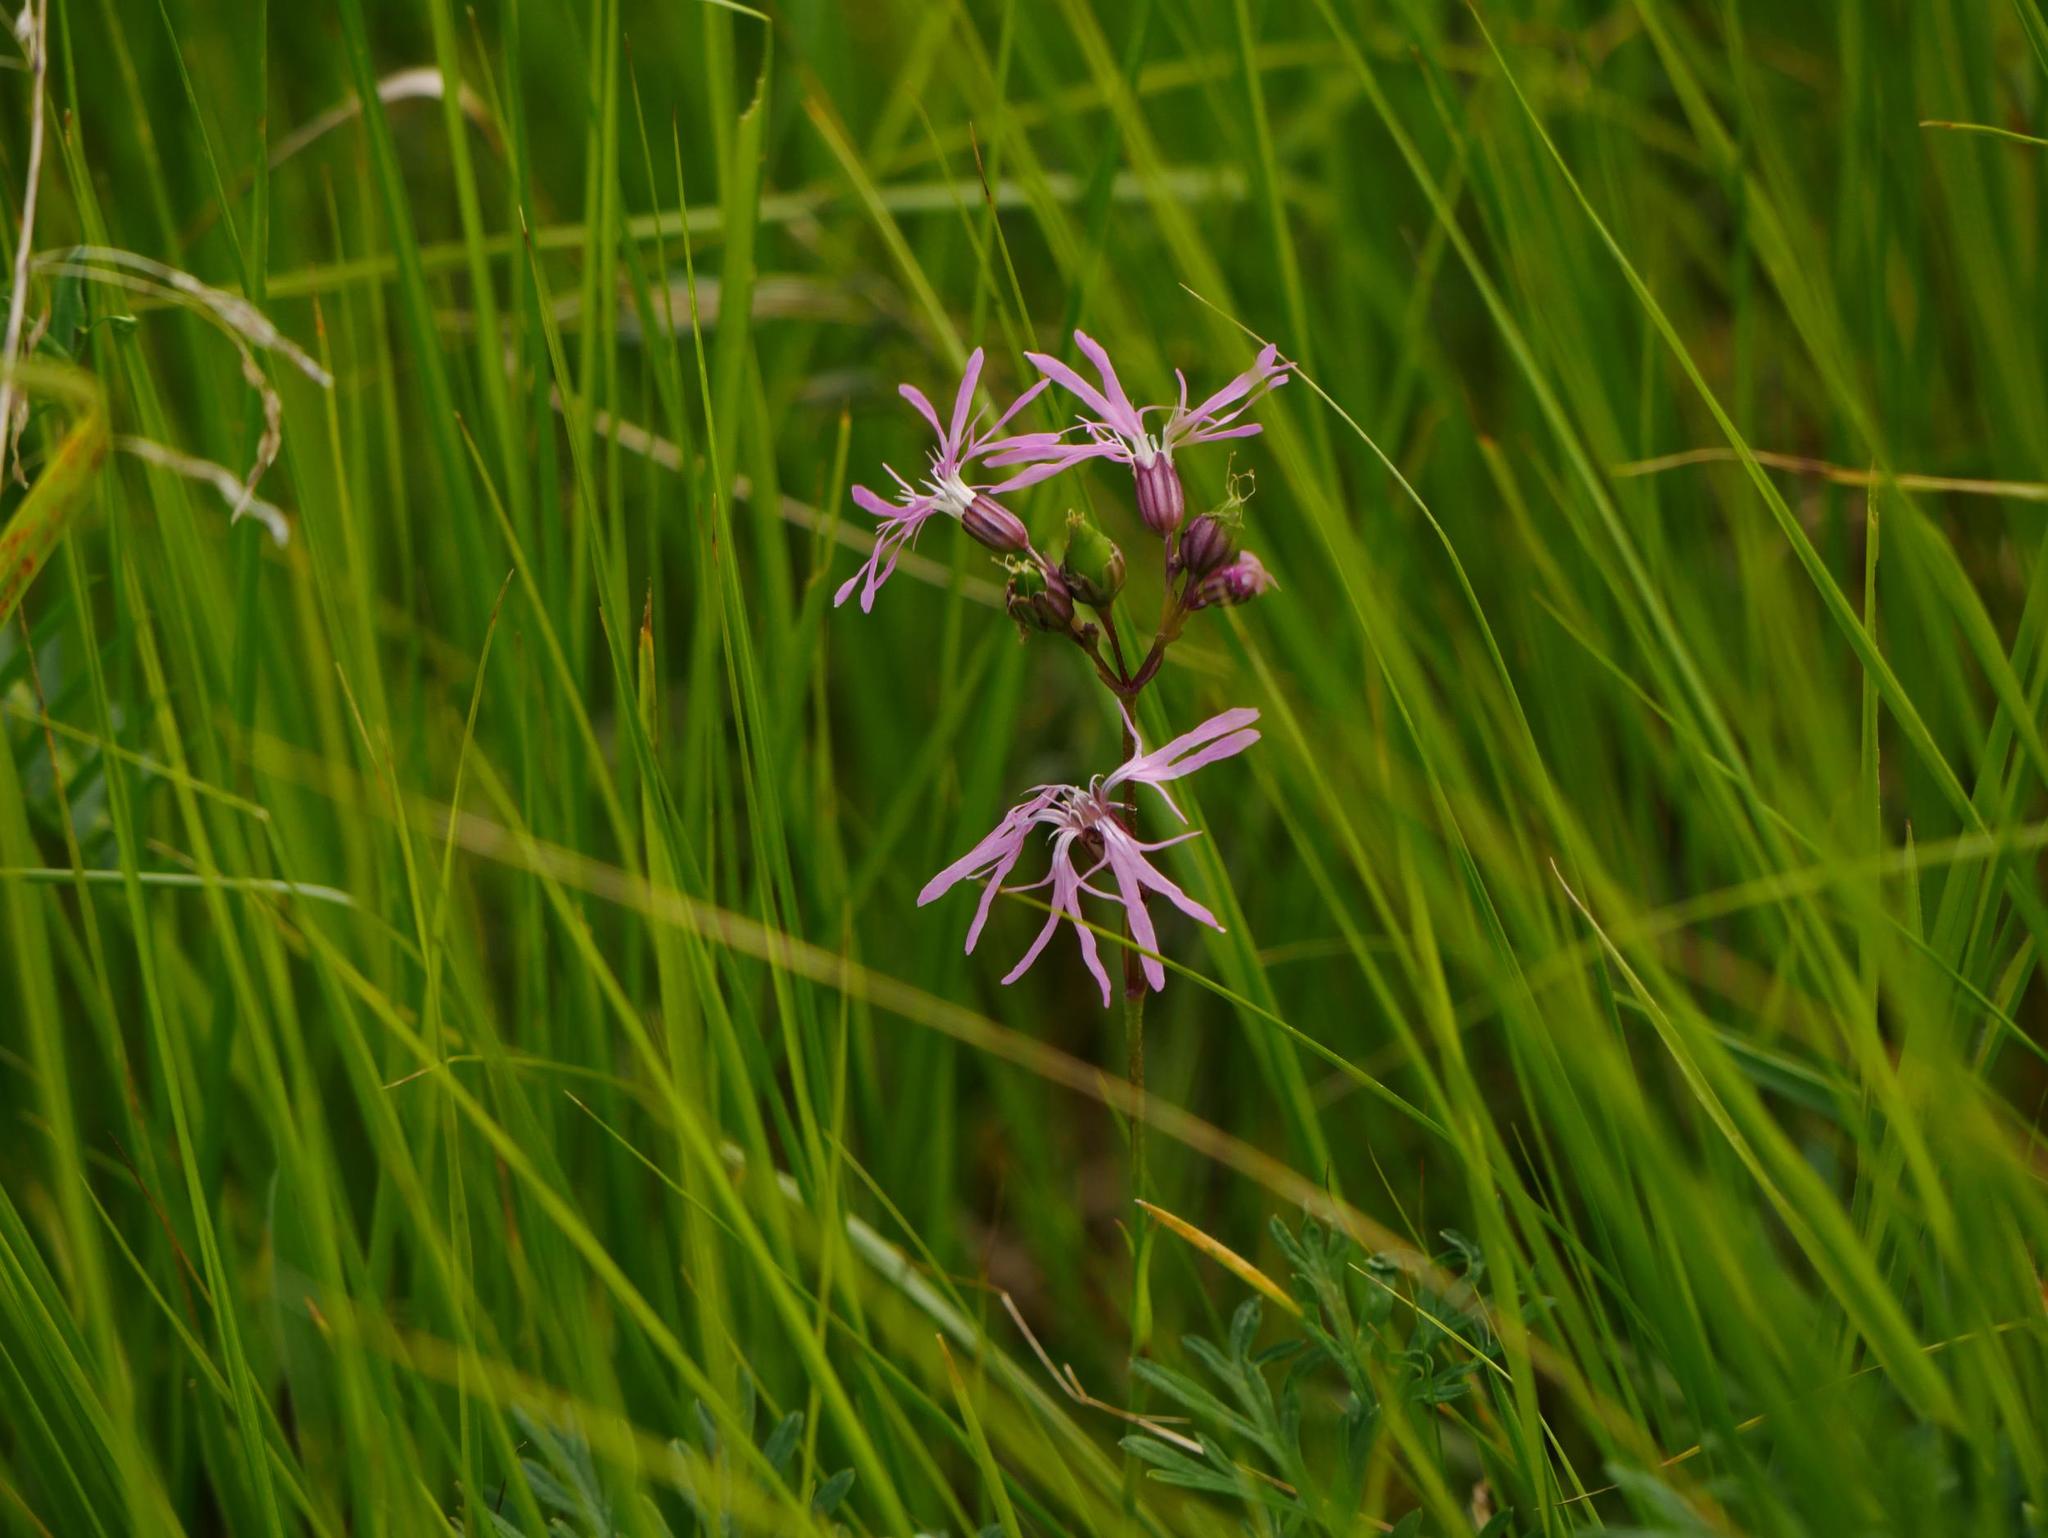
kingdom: Plantae
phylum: Tracheophyta
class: Magnoliopsida
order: Caryophyllales
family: Caryophyllaceae
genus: Silene
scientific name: Silene flos-cuculi
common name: Ragged-robin
